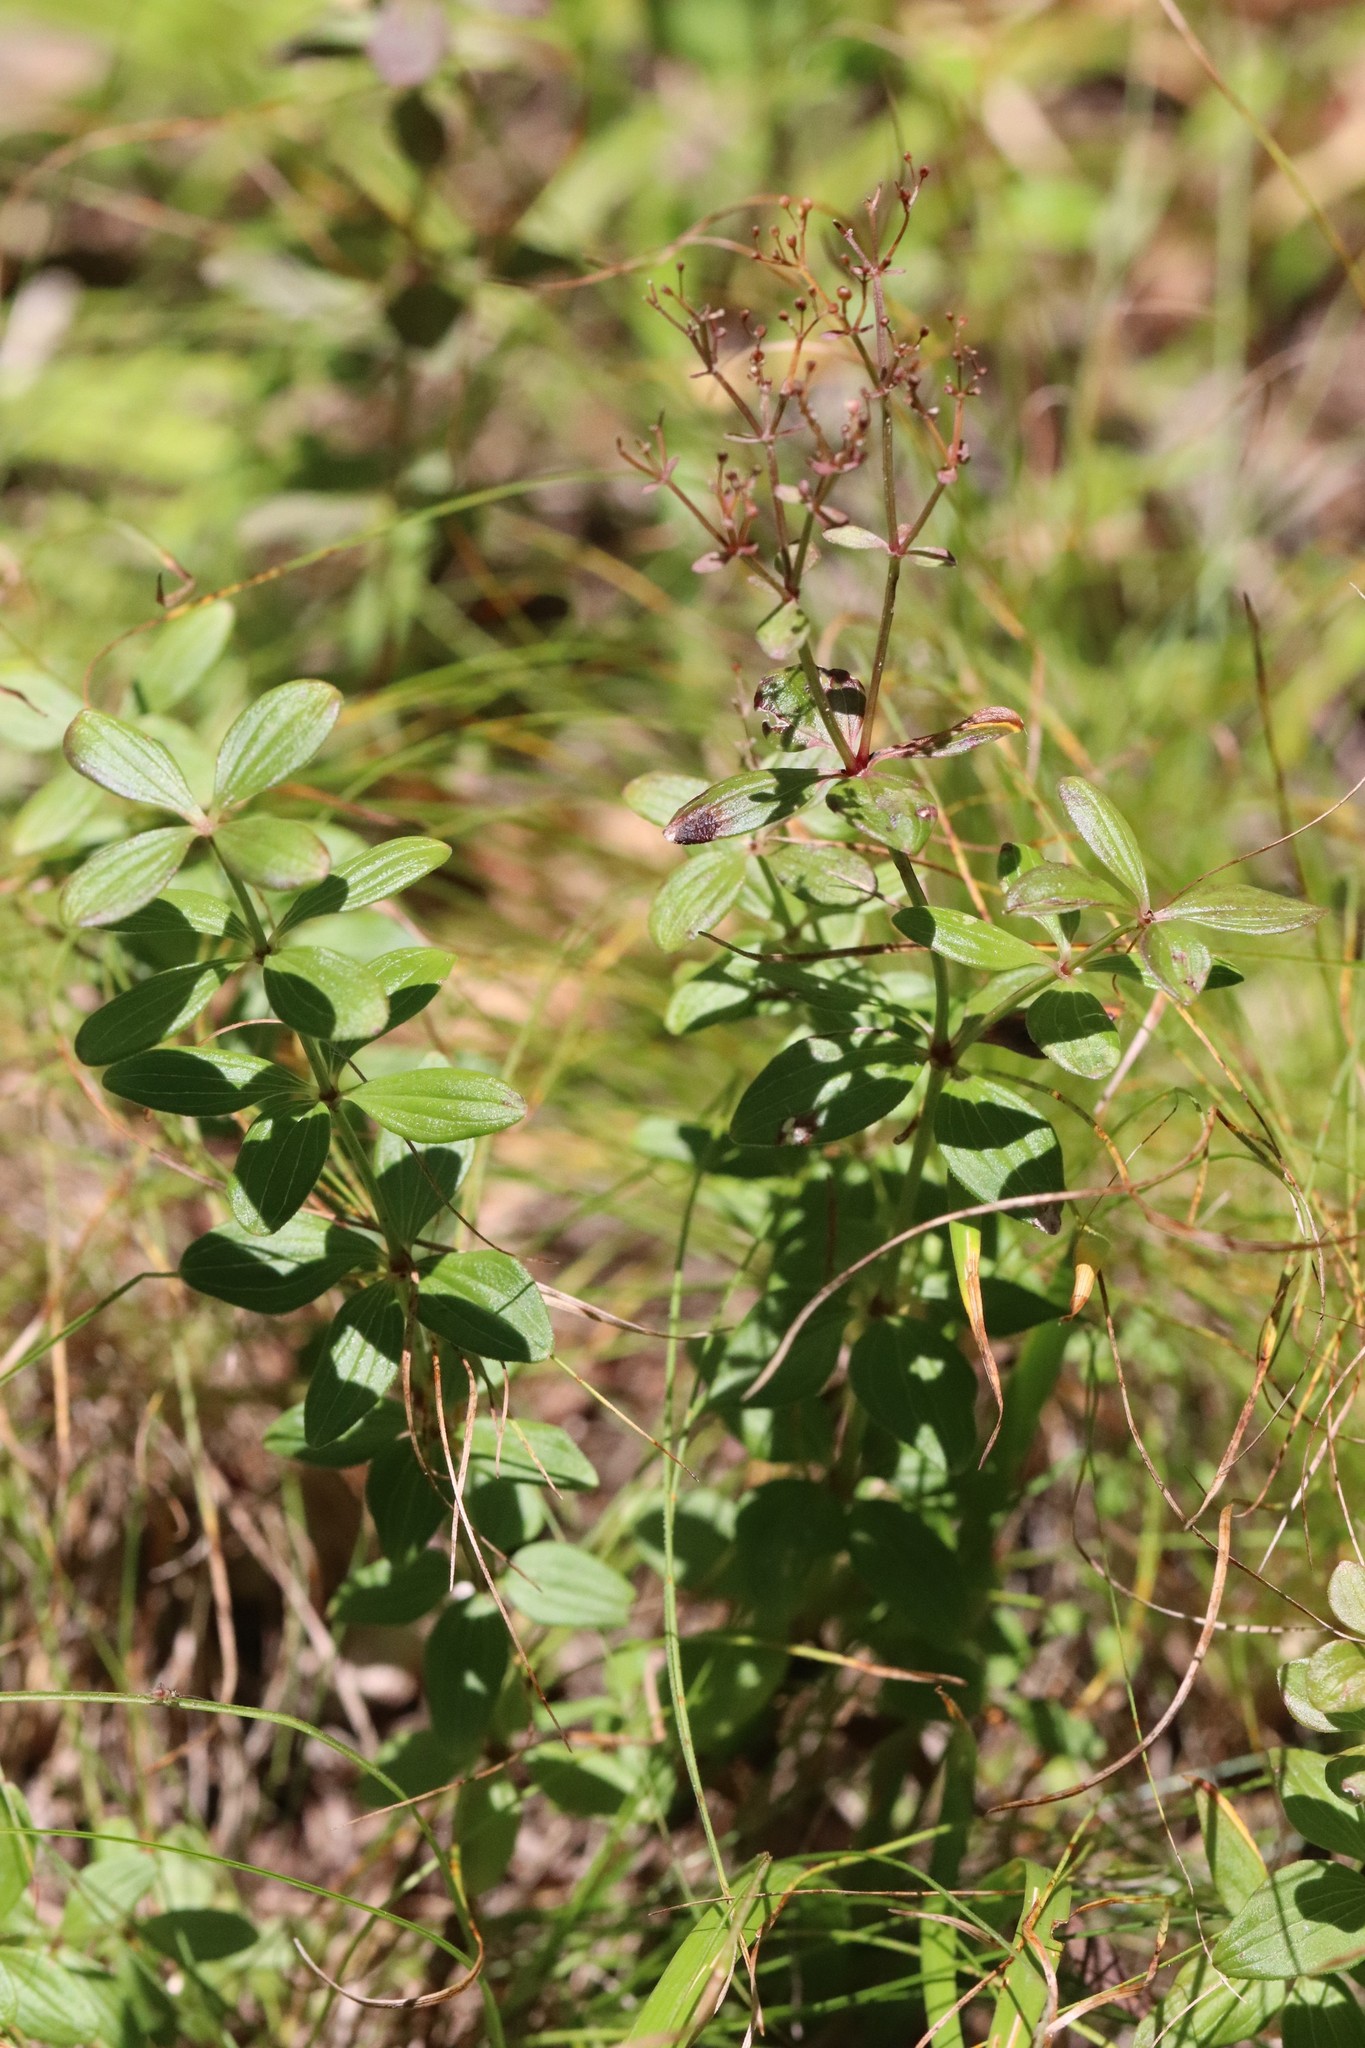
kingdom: Plantae
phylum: Tracheophyta
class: Magnoliopsida
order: Gentianales
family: Rubiaceae
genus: Galium
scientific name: Galium platygalium
